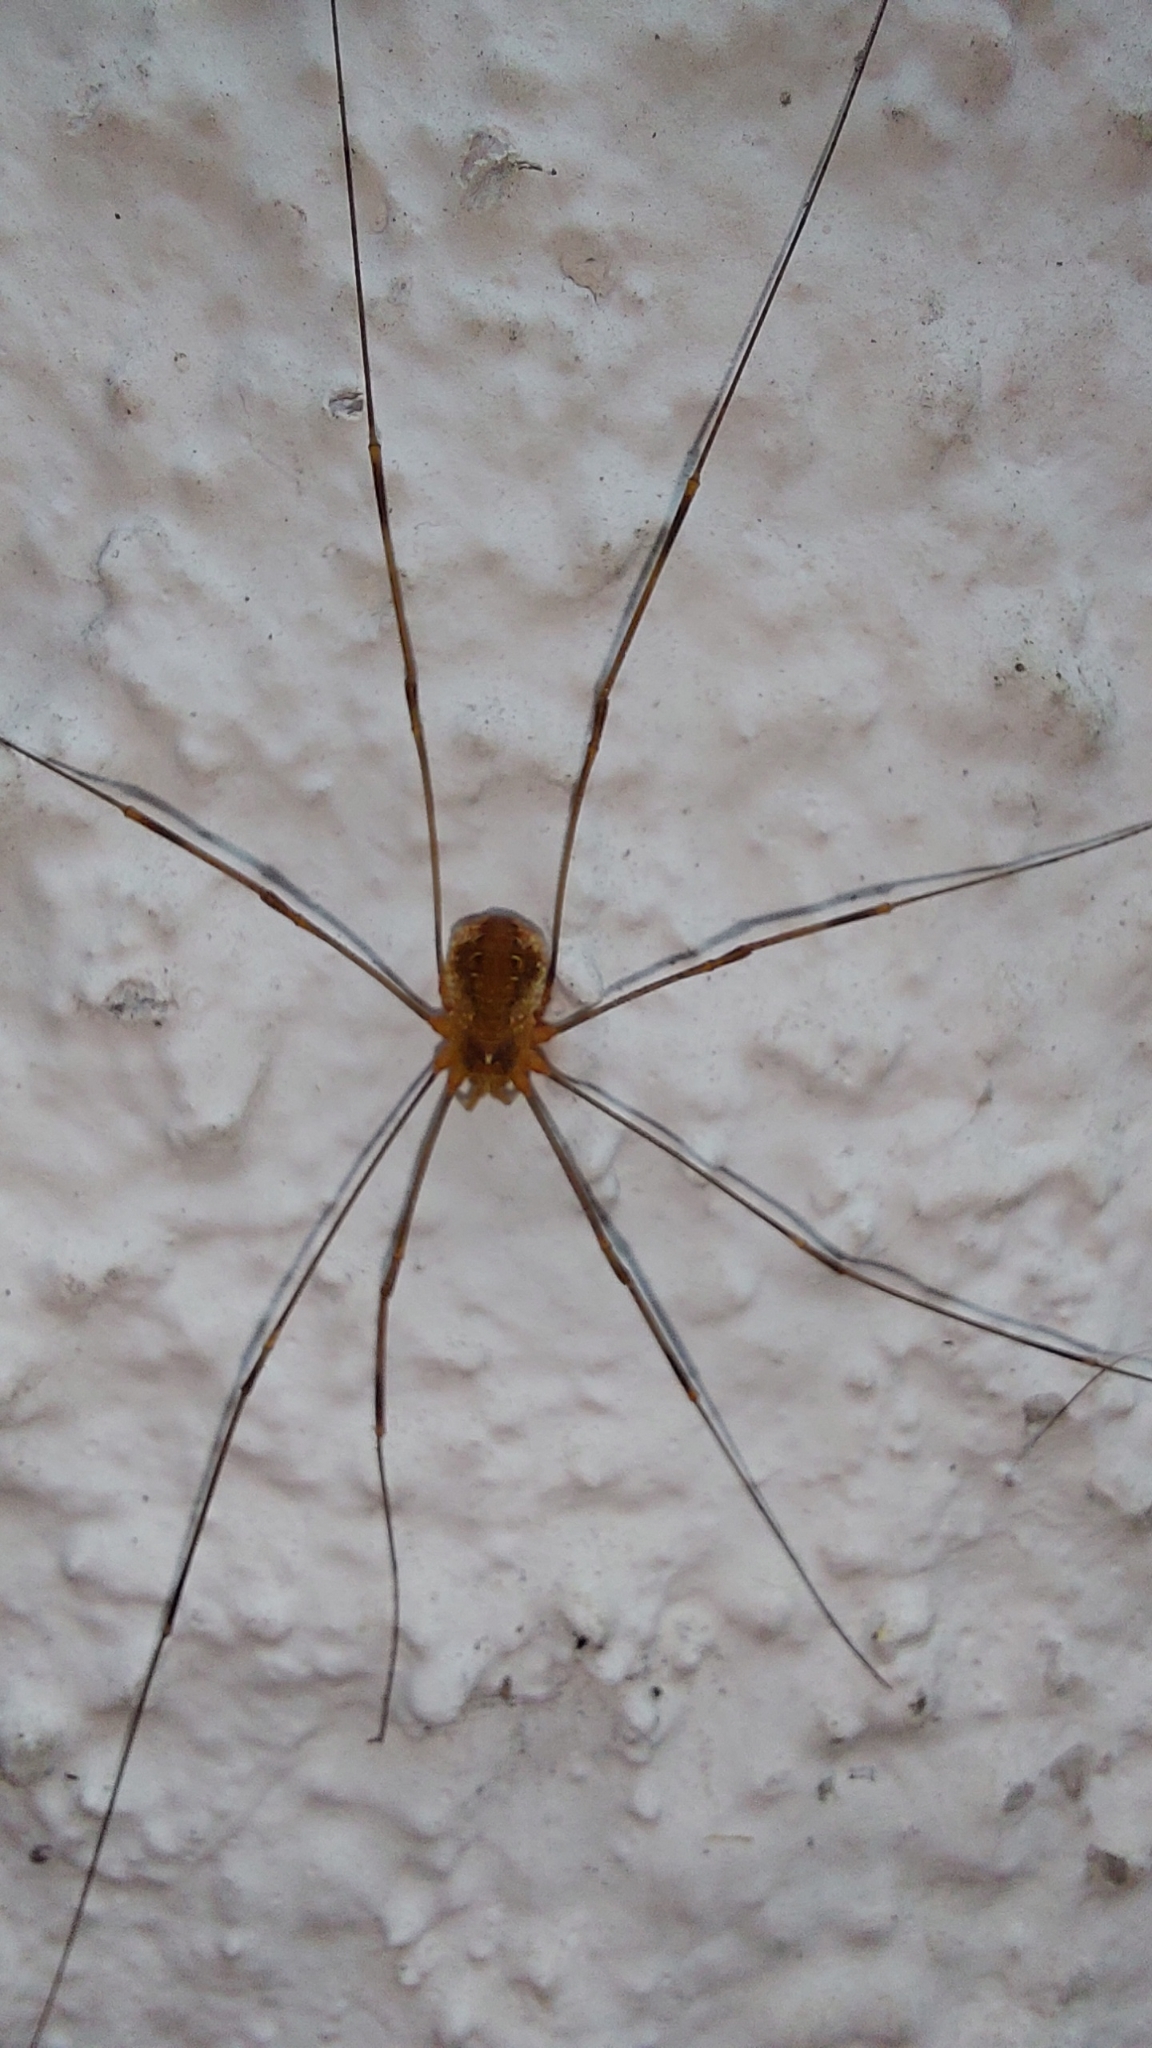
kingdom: Animalia
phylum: Arthropoda
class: Arachnida
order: Opiliones
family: Phalangiidae
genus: Opilio
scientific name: Opilio canestrinii
